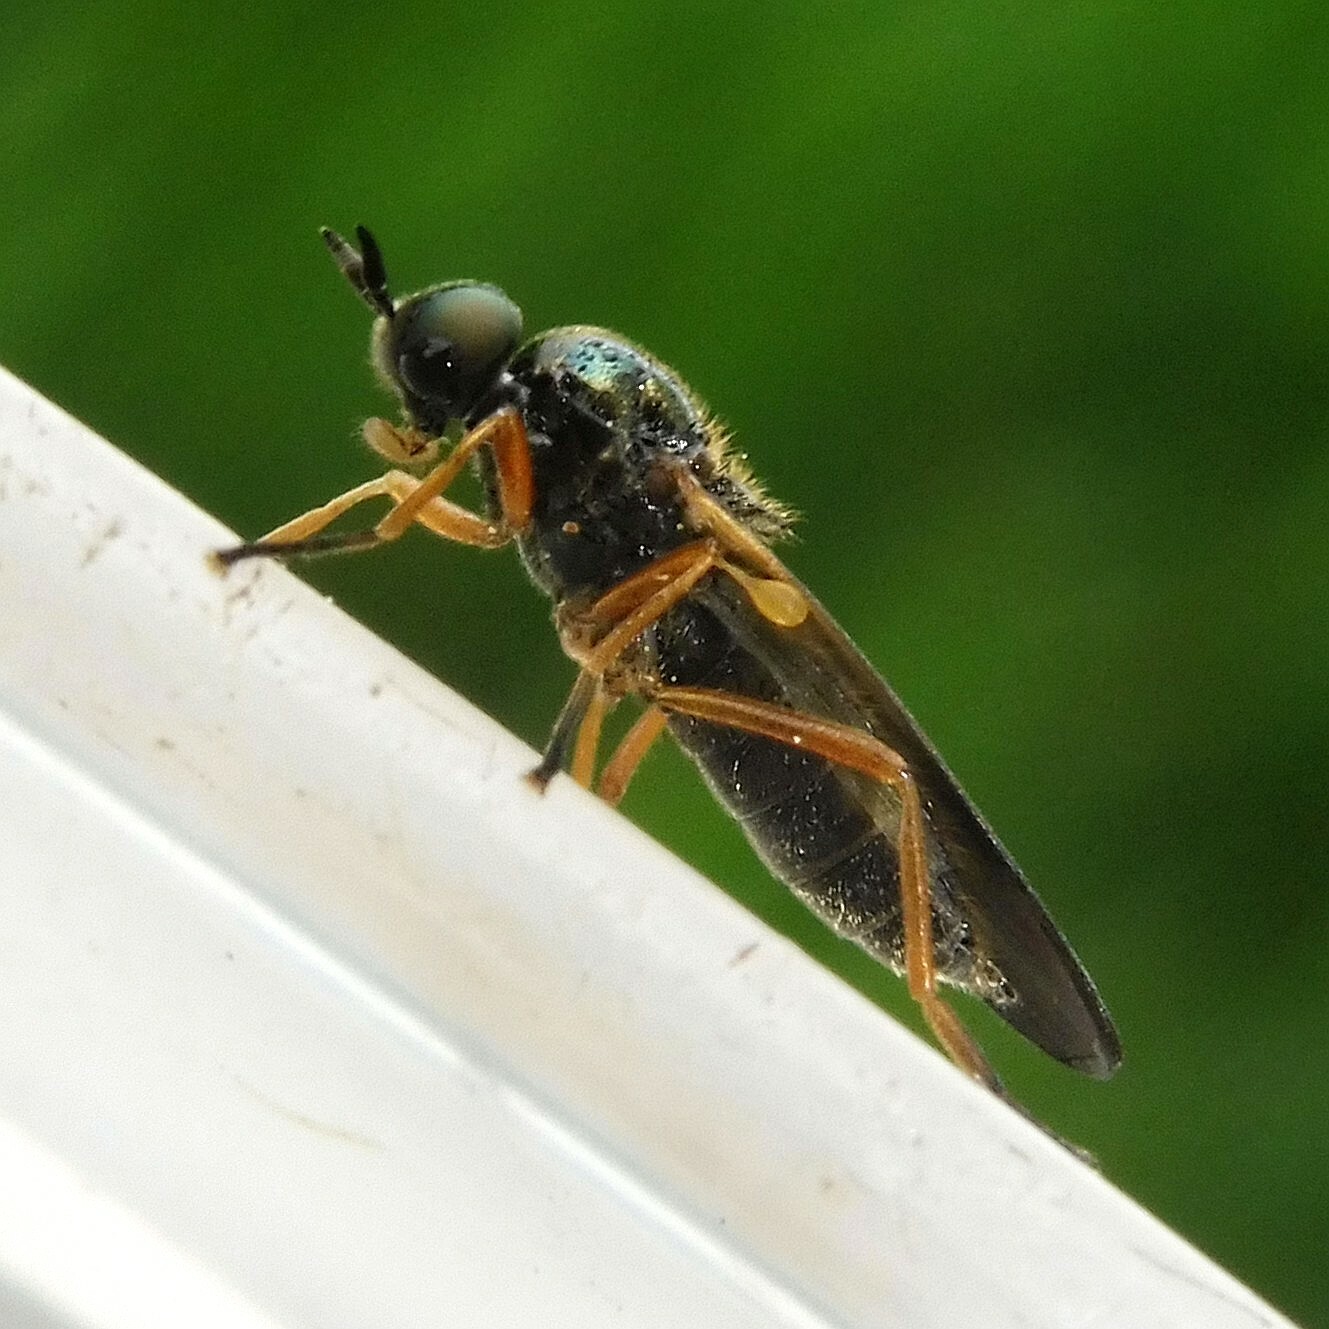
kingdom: Animalia
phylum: Arthropoda
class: Insecta
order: Diptera
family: Stratiomyidae
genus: Beris
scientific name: Beris chalybata
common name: Murky-legged black legionnaire
